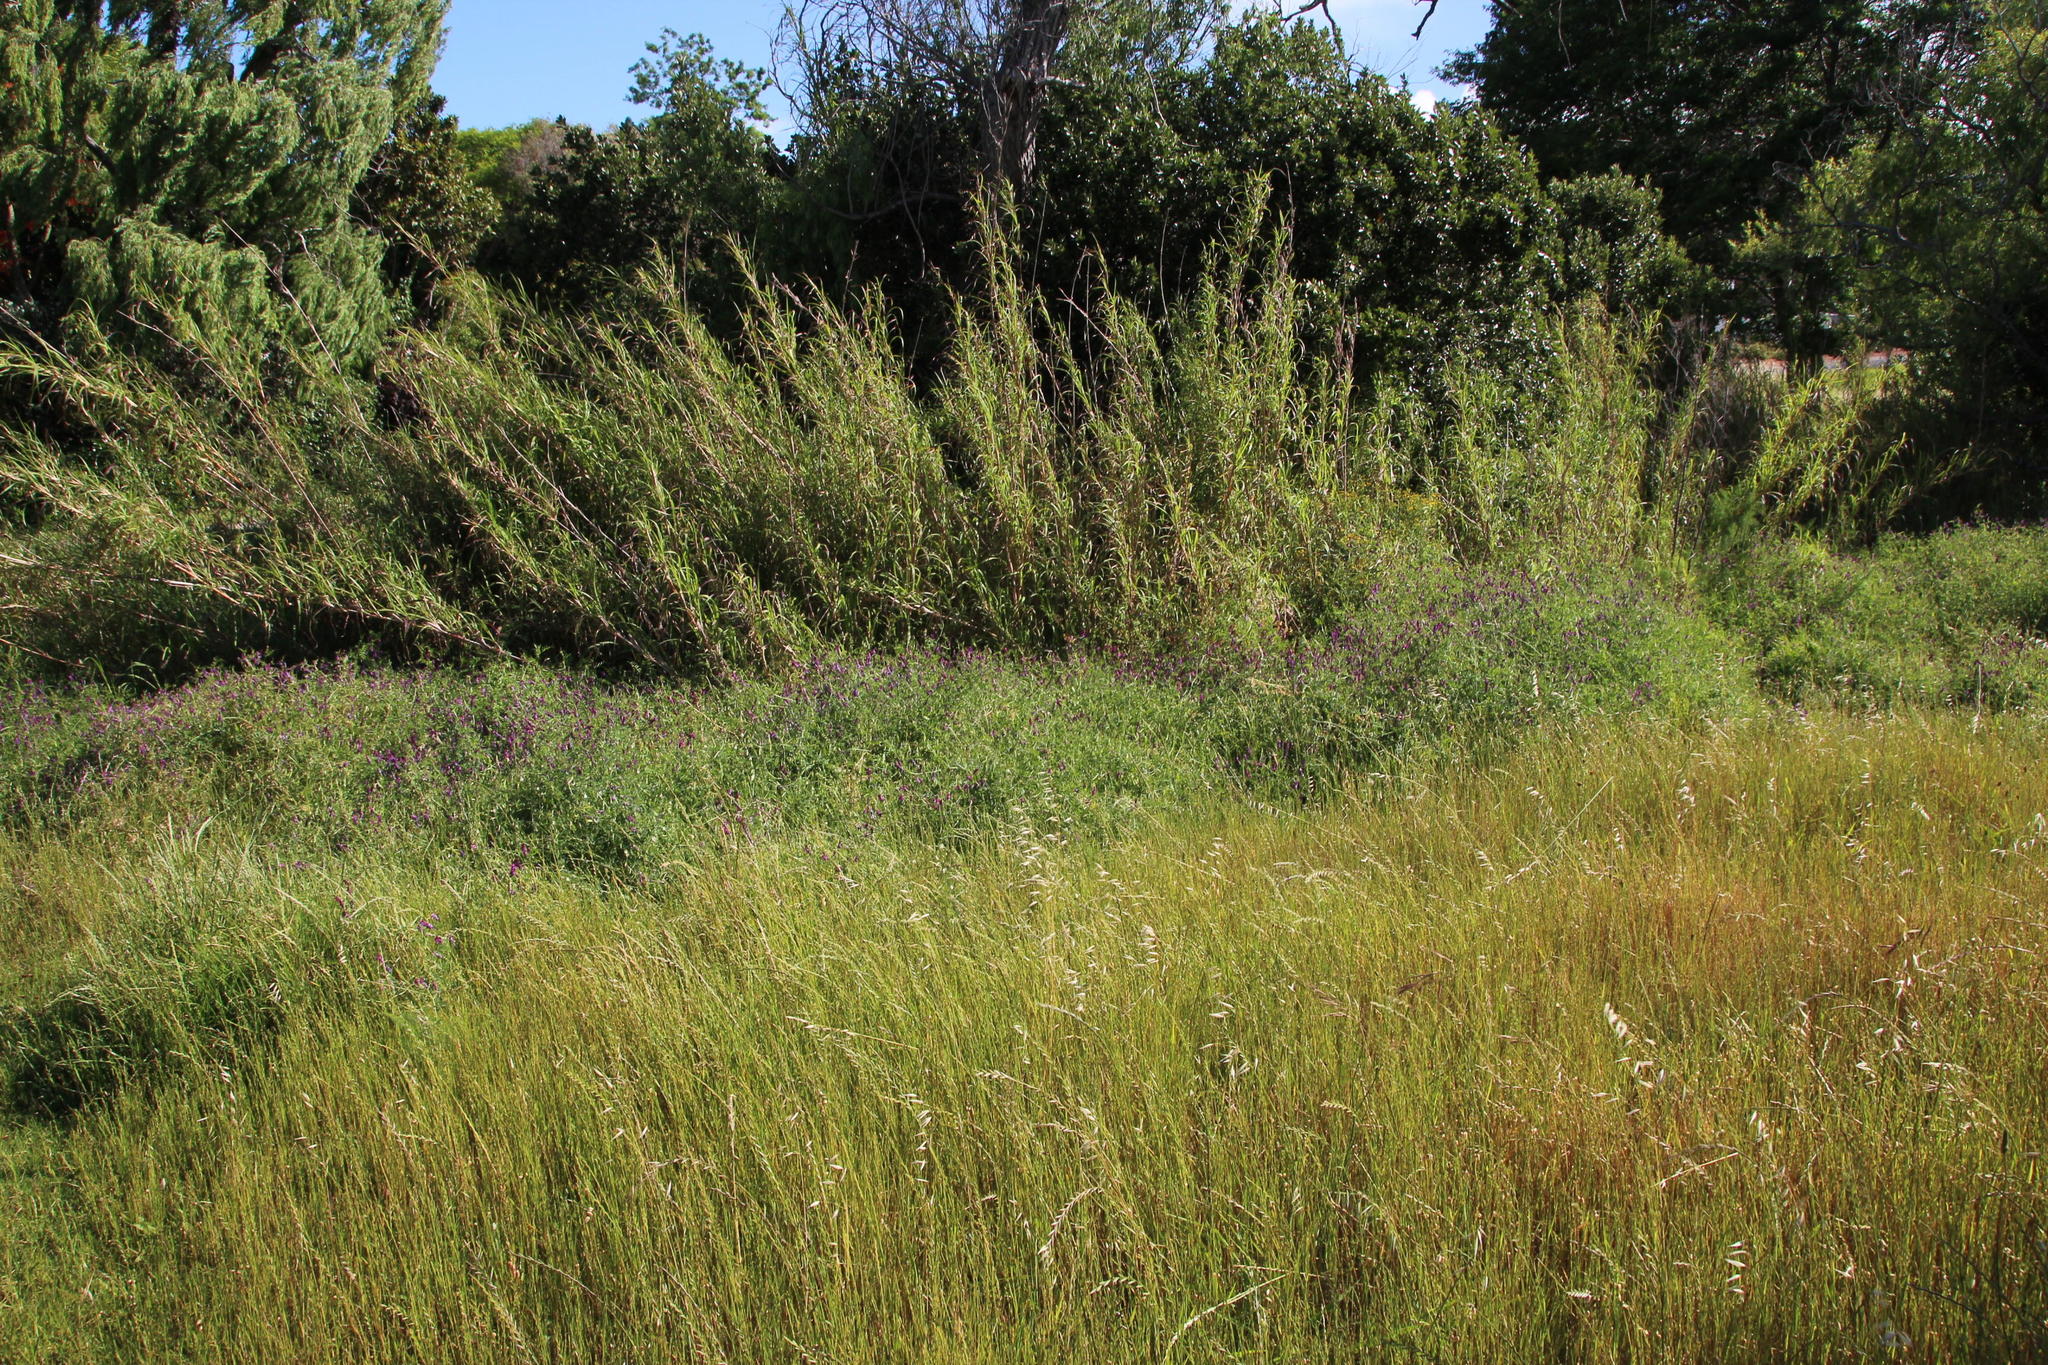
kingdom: Plantae
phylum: Tracheophyta
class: Liliopsida
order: Poales
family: Poaceae
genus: Arundo
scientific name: Arundo donax
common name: Giant reed
